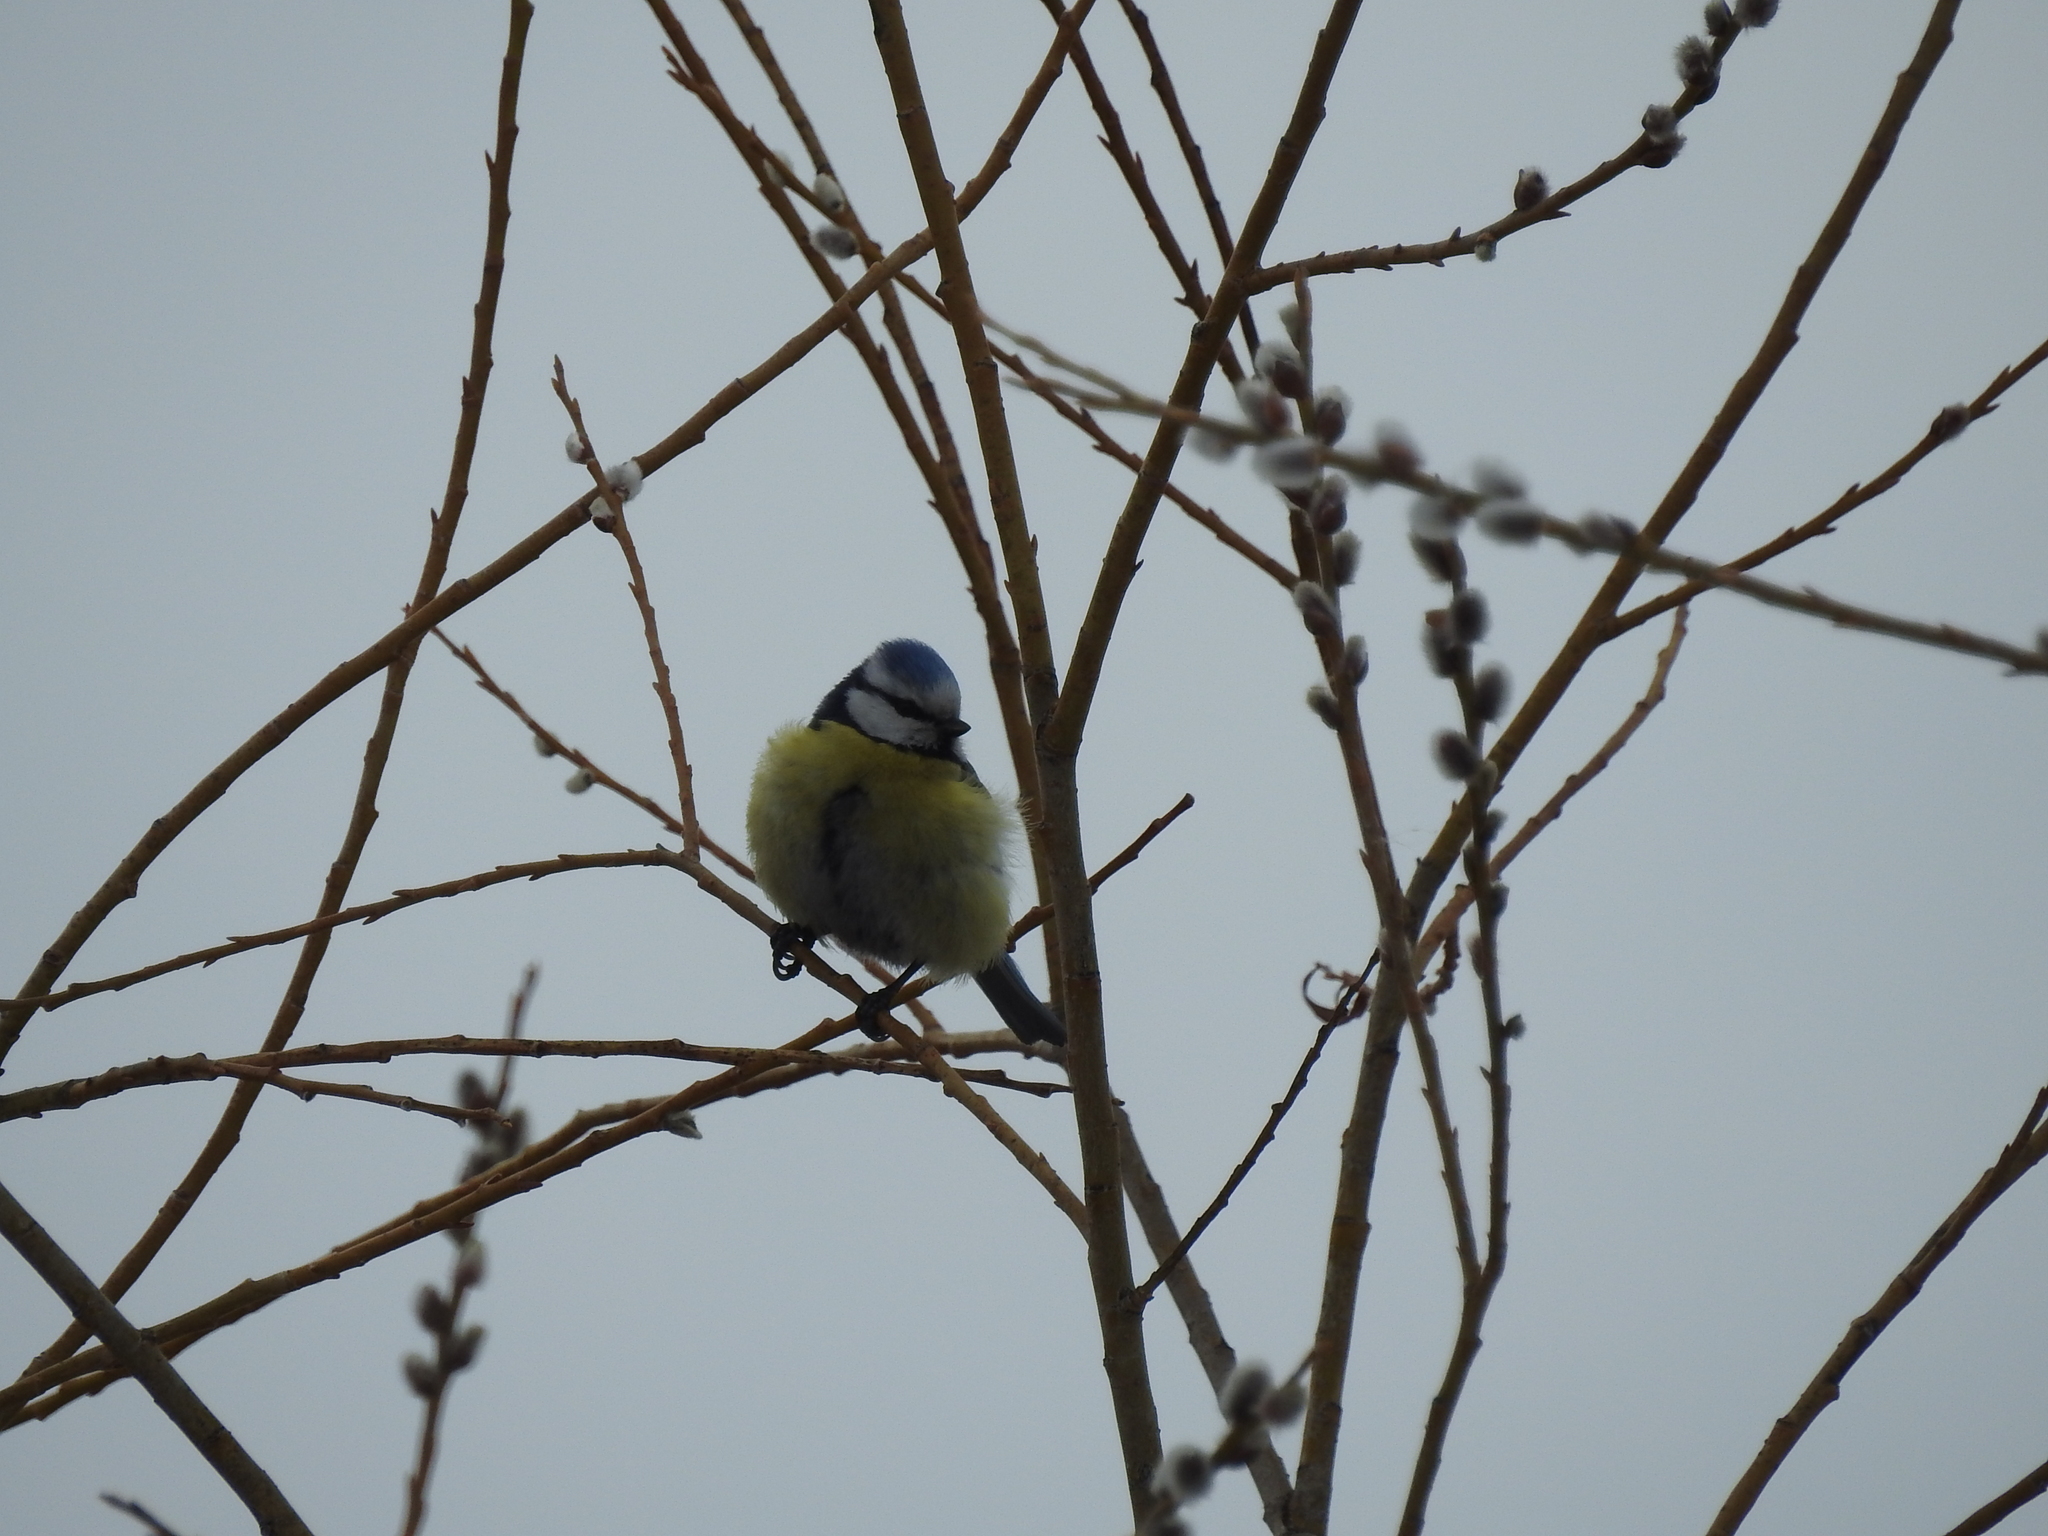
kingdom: Animalia
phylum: Chordata
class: Aves
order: Passeriformes
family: Paridae
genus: Cyanistes
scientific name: Cyanistes caeruleus
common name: Eurasian blue tit
